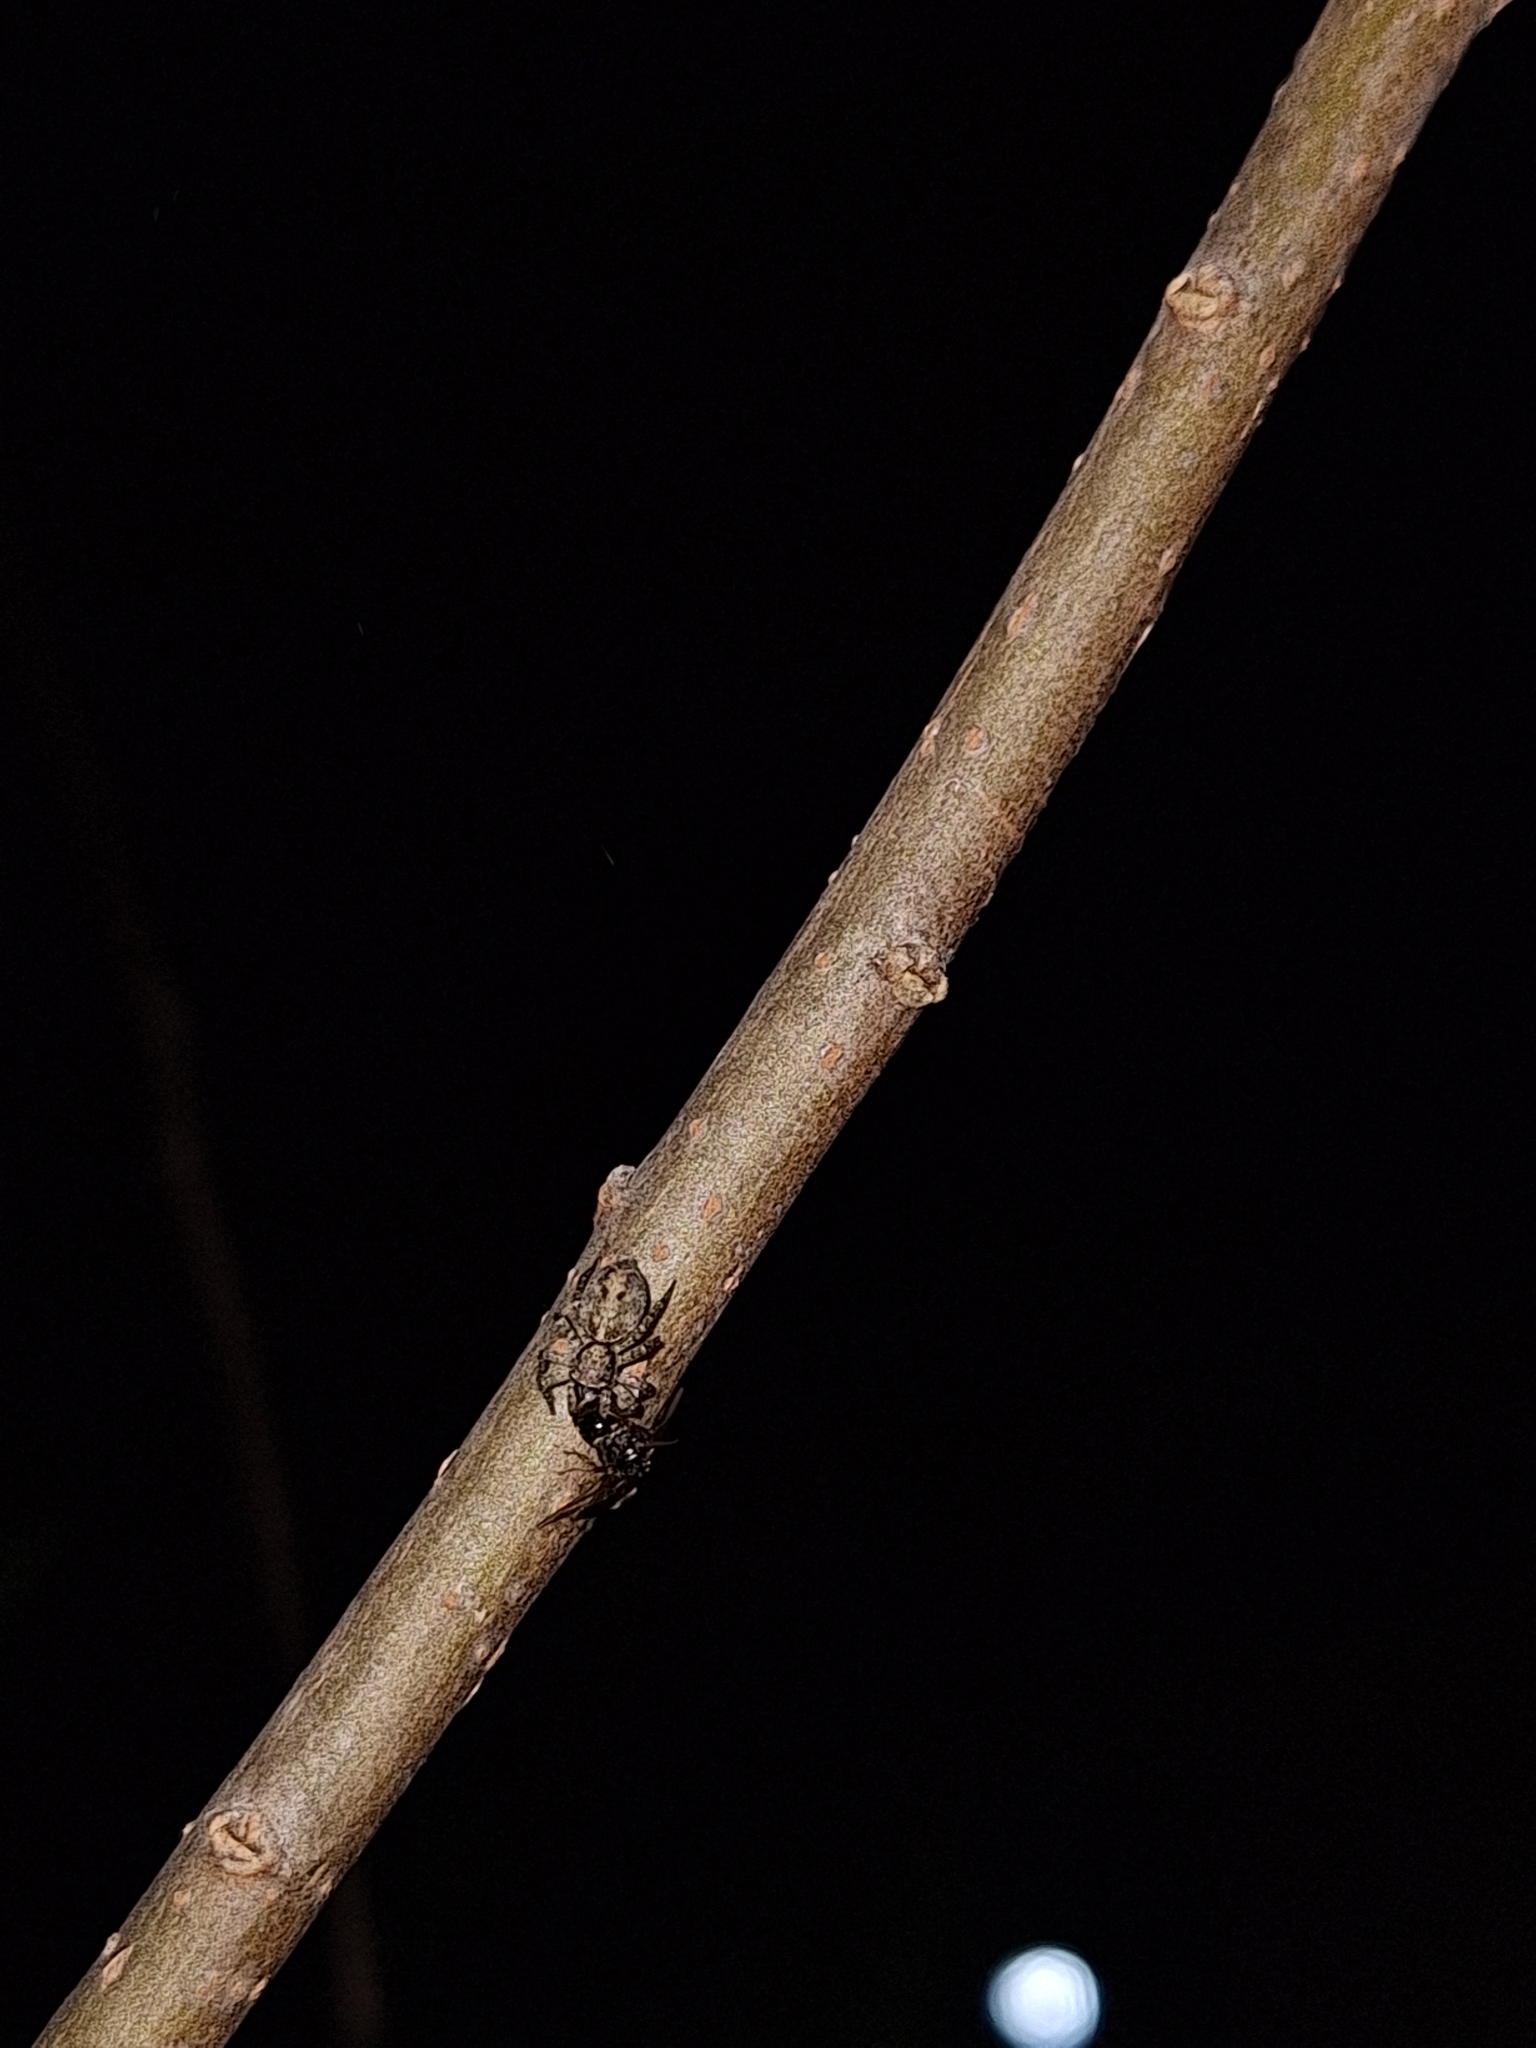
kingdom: Animalia
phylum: Arthropoda
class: Arachnida
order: Araneae
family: Salticidae
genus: Saitis
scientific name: Saitis variegatus
